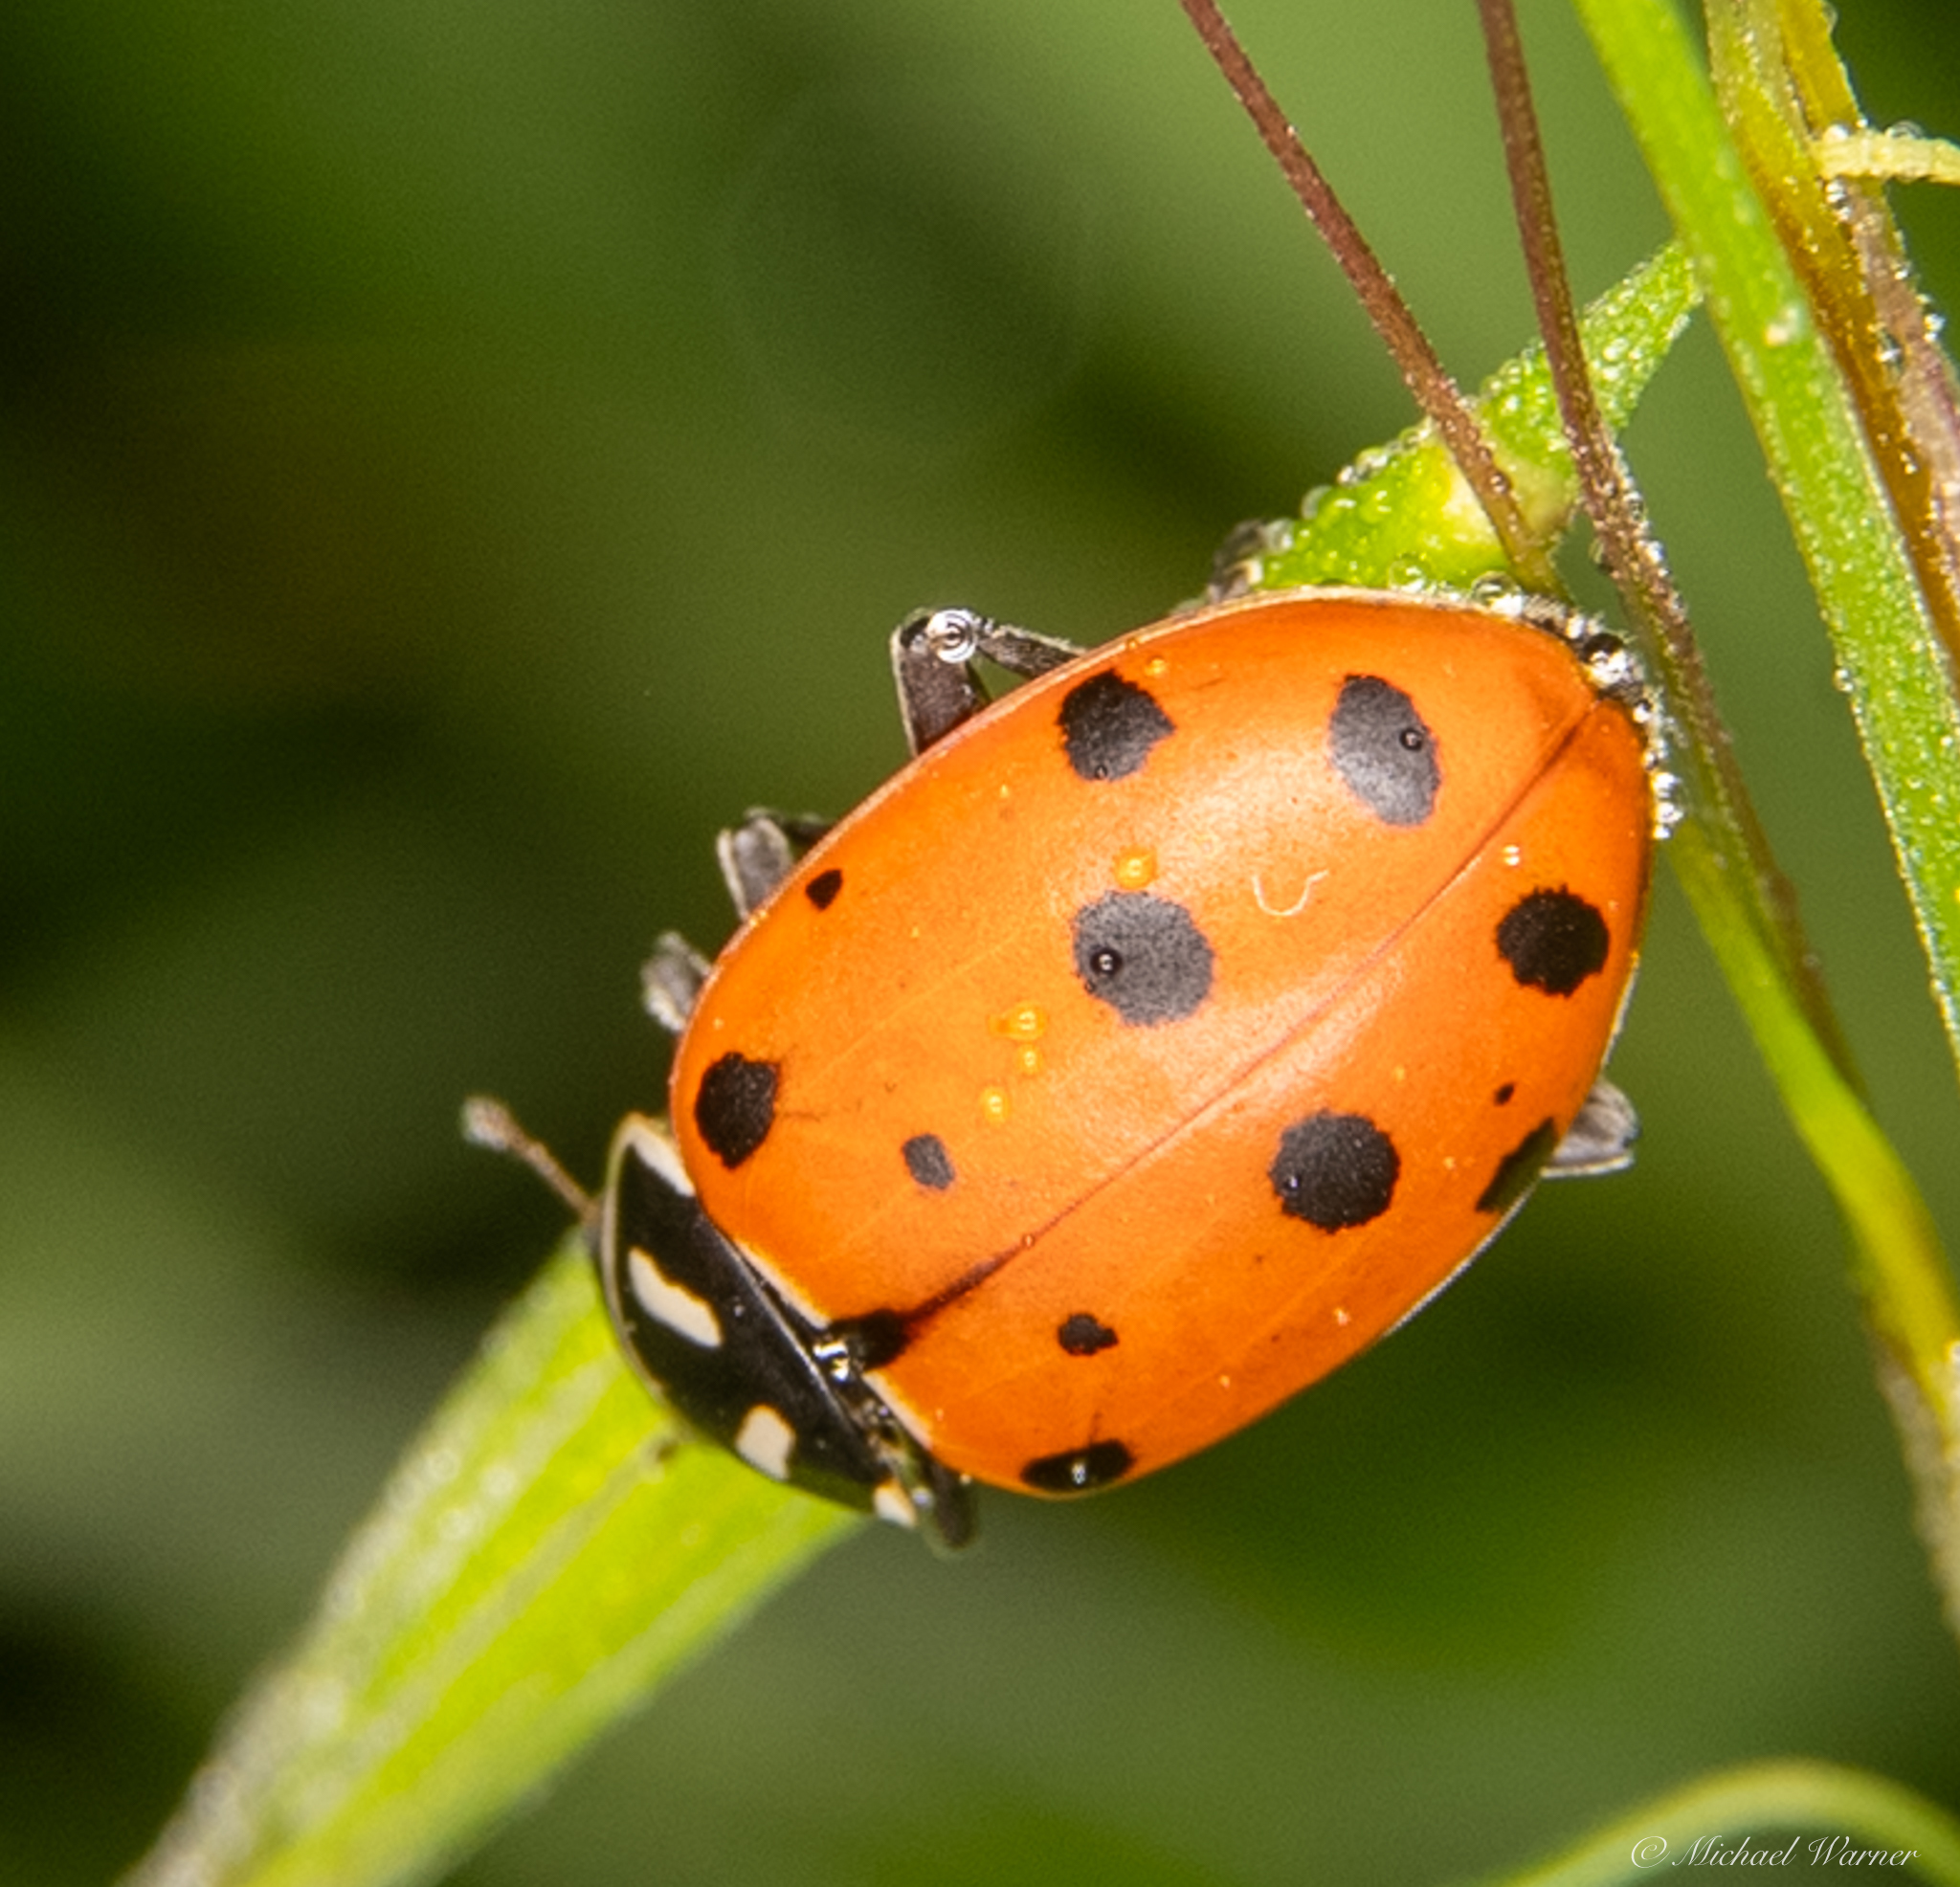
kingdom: Animalia
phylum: Arthropoda
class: Insecta
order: Coleoptera
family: Coccinellidae
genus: Hippodamia
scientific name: Hippodamia convergens
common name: Convergent lady beetle
